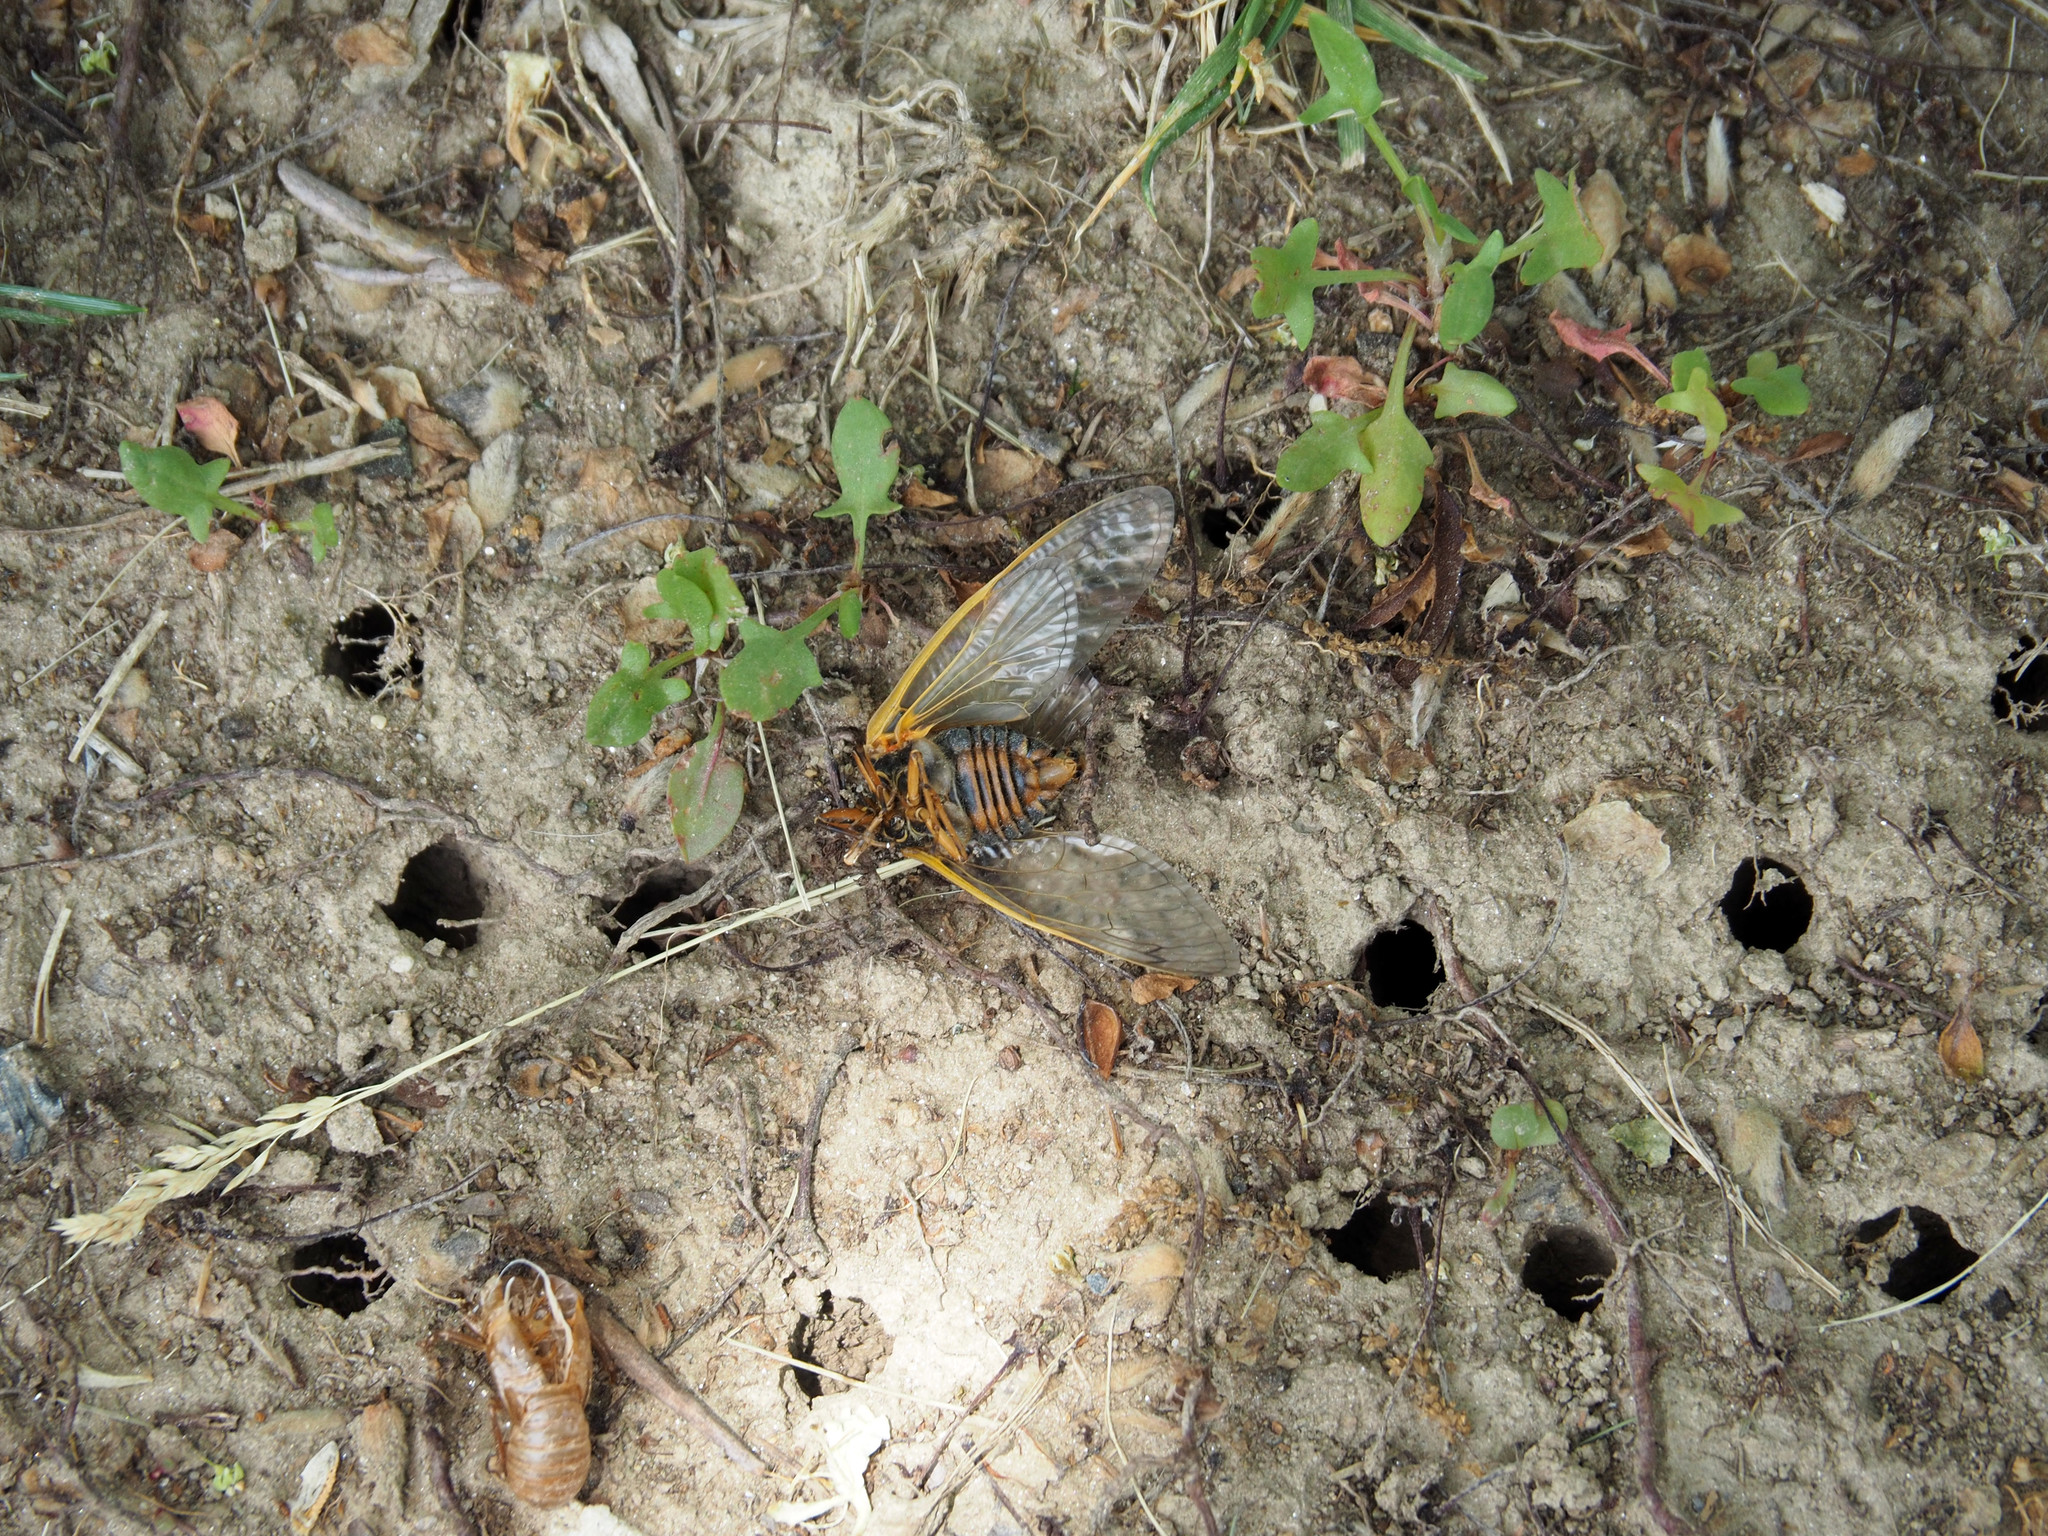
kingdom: Animalia
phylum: Arthropoda
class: Insecta
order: Hemiptera
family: Cicadidae
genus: Magicicada
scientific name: Magicicada septendecim
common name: Periodical cicada
